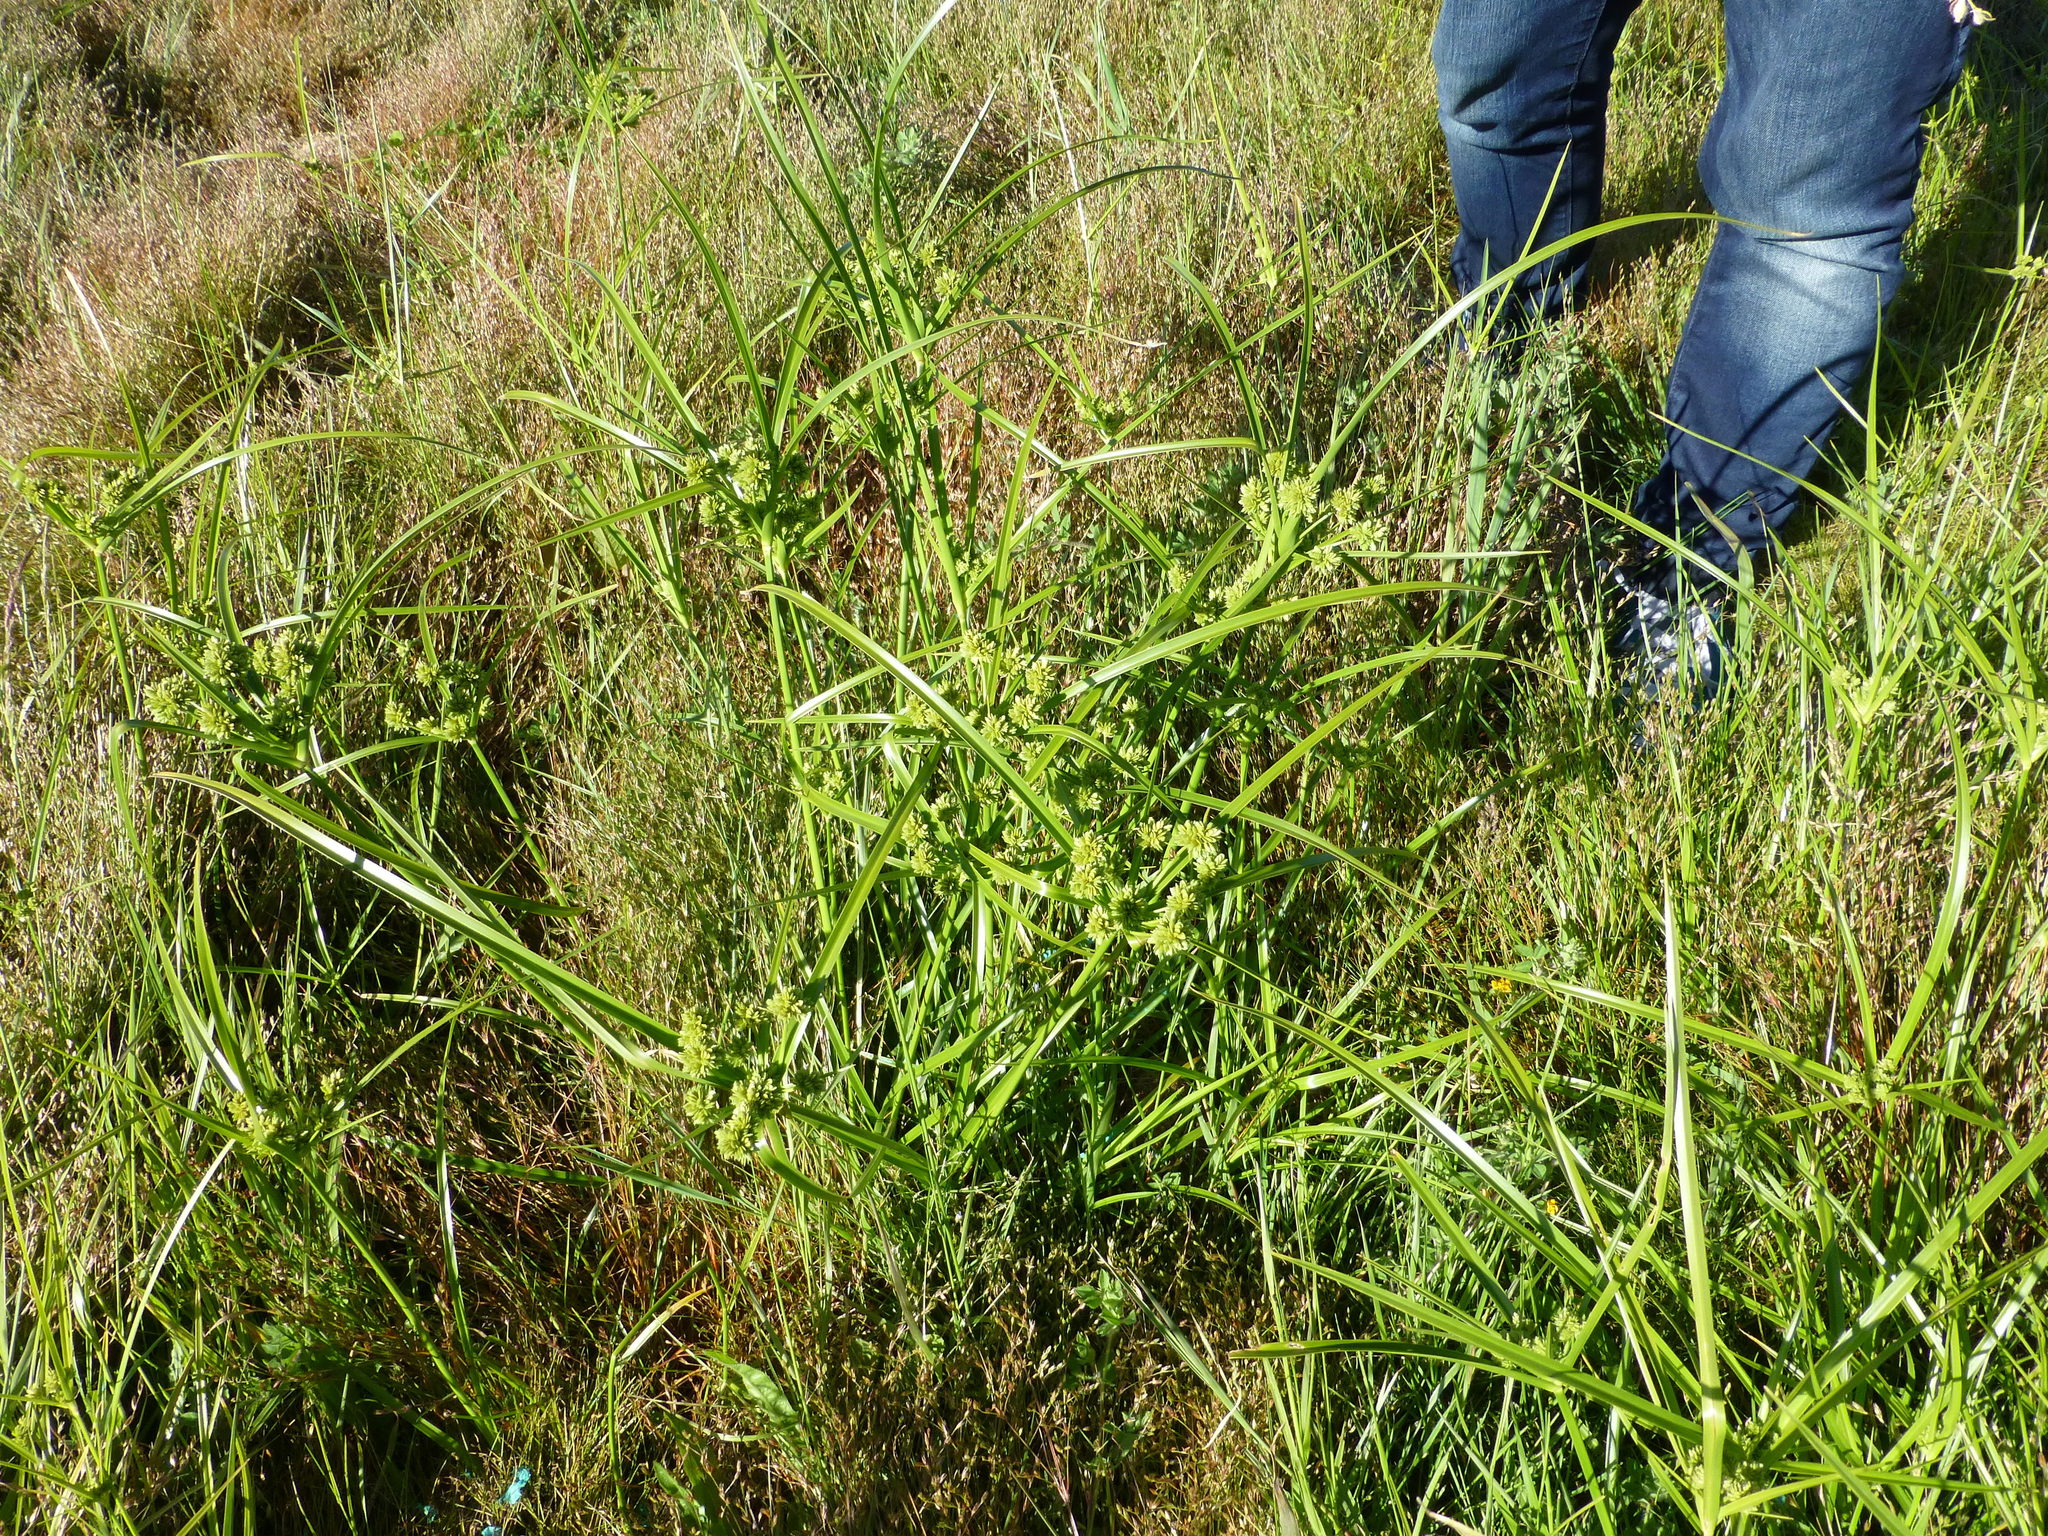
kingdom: Plantae
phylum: Tracheophyta
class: Liliopsida
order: Poales
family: Cyperaceae
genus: Cyperus
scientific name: Cyperus eragrostis
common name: Tall flatsedge
